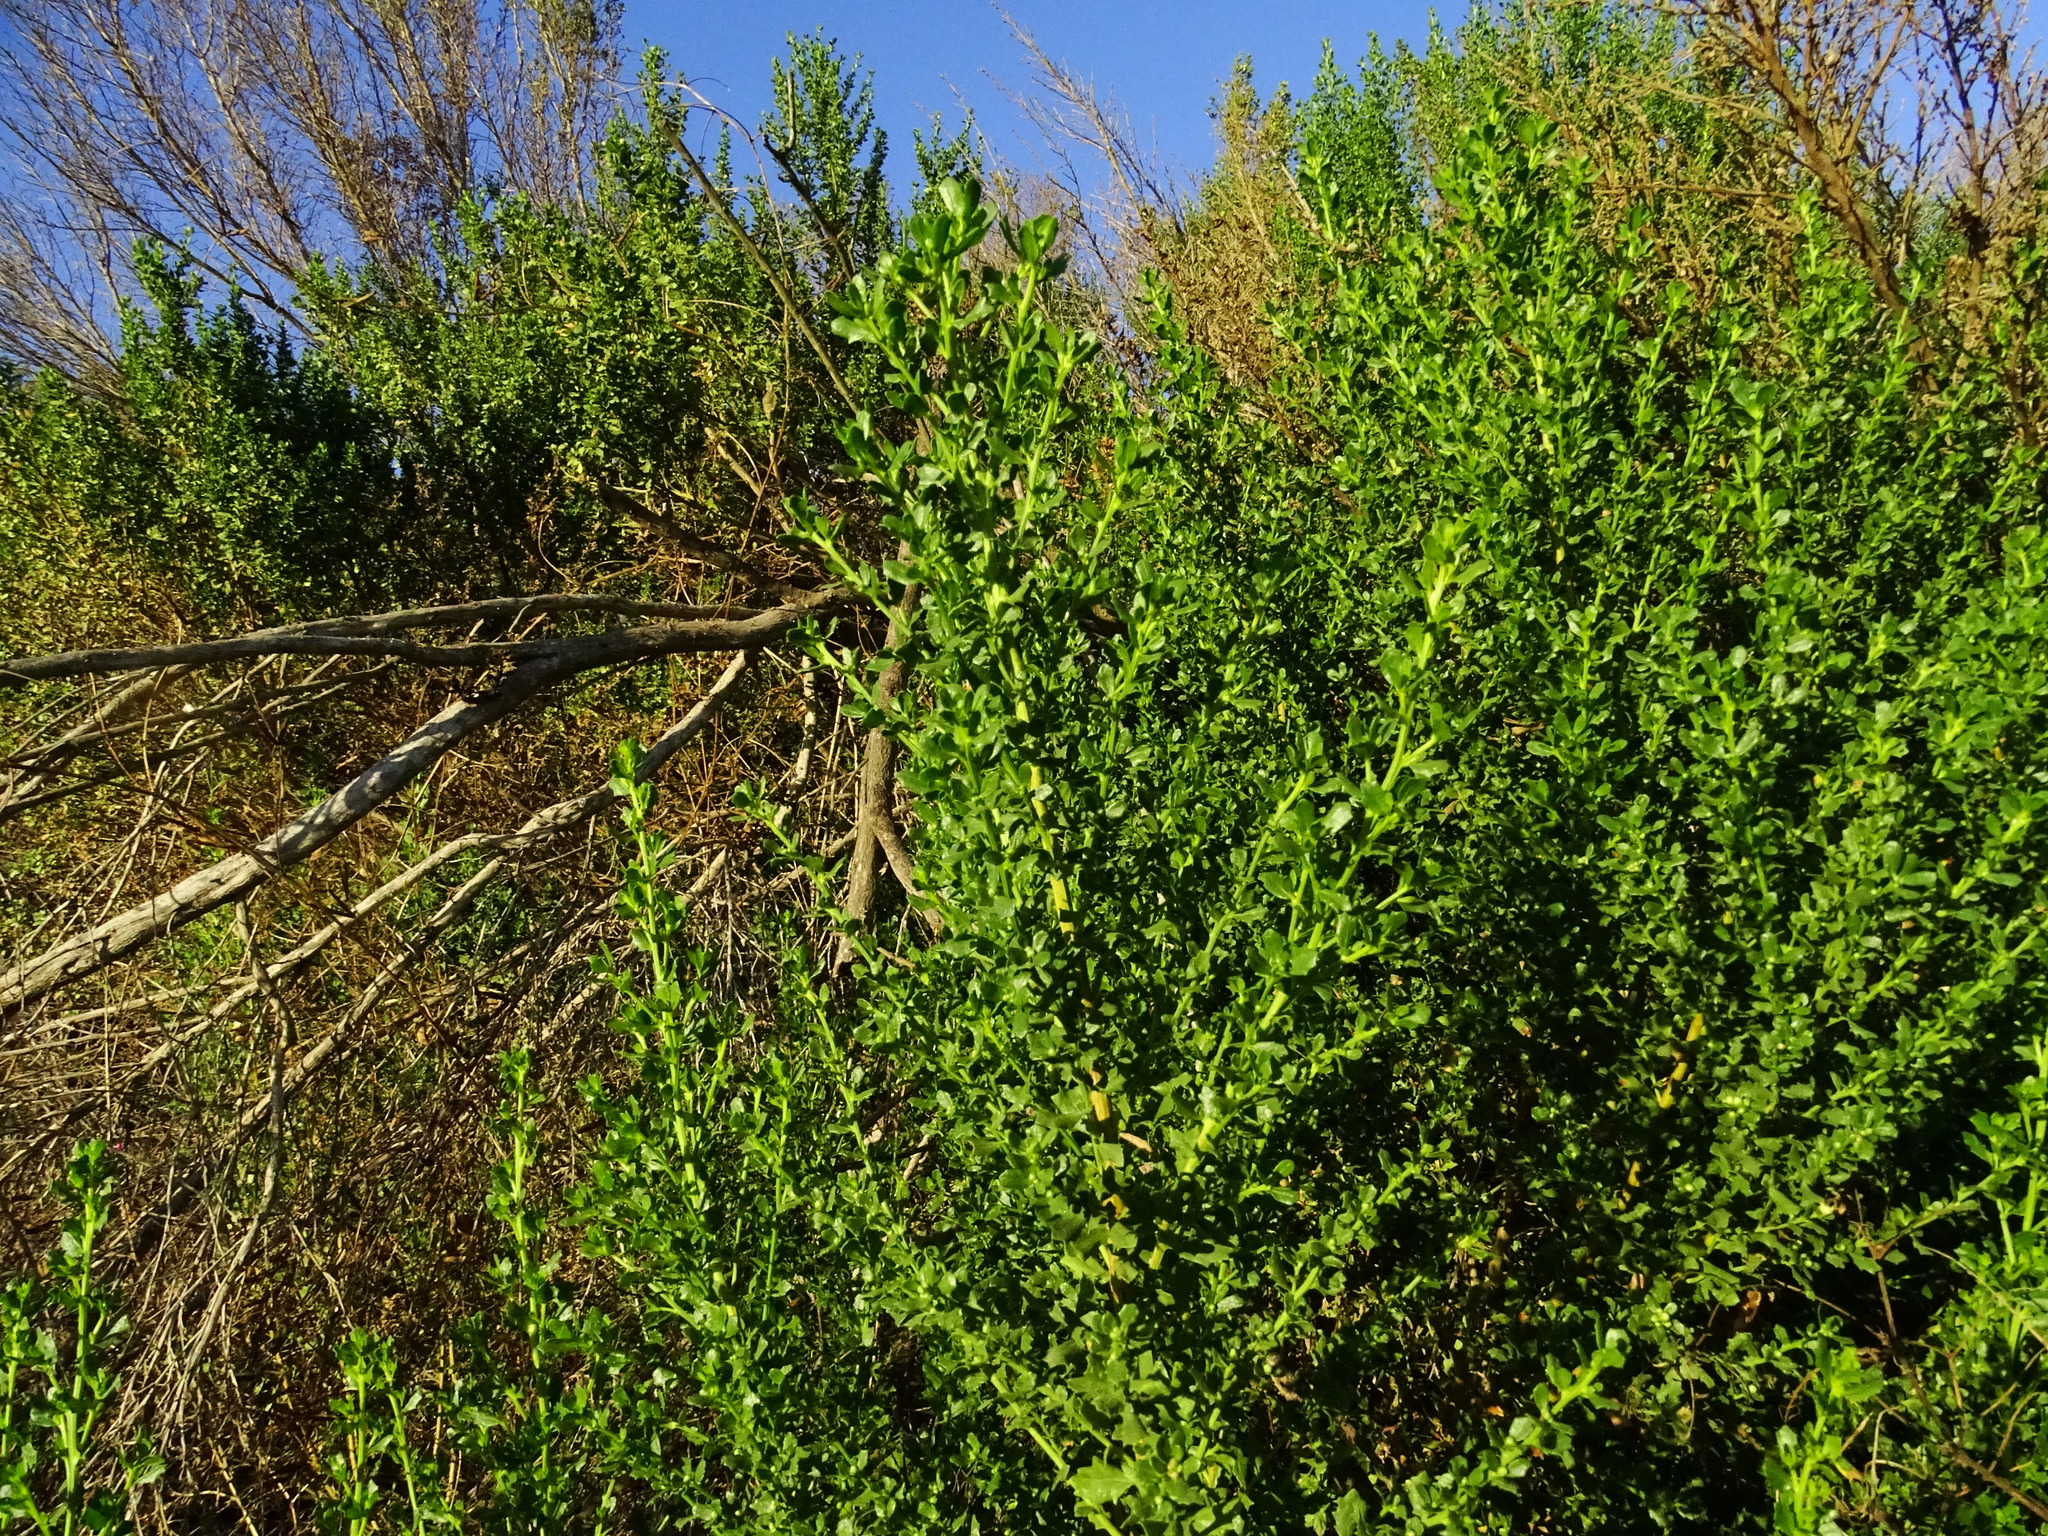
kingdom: Plantae
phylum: Tracheophyta
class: Magnoliopsida
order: Asterales
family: Asteraceae
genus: Baccharis
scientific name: Baccharis pilularis
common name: Coyotebrush
